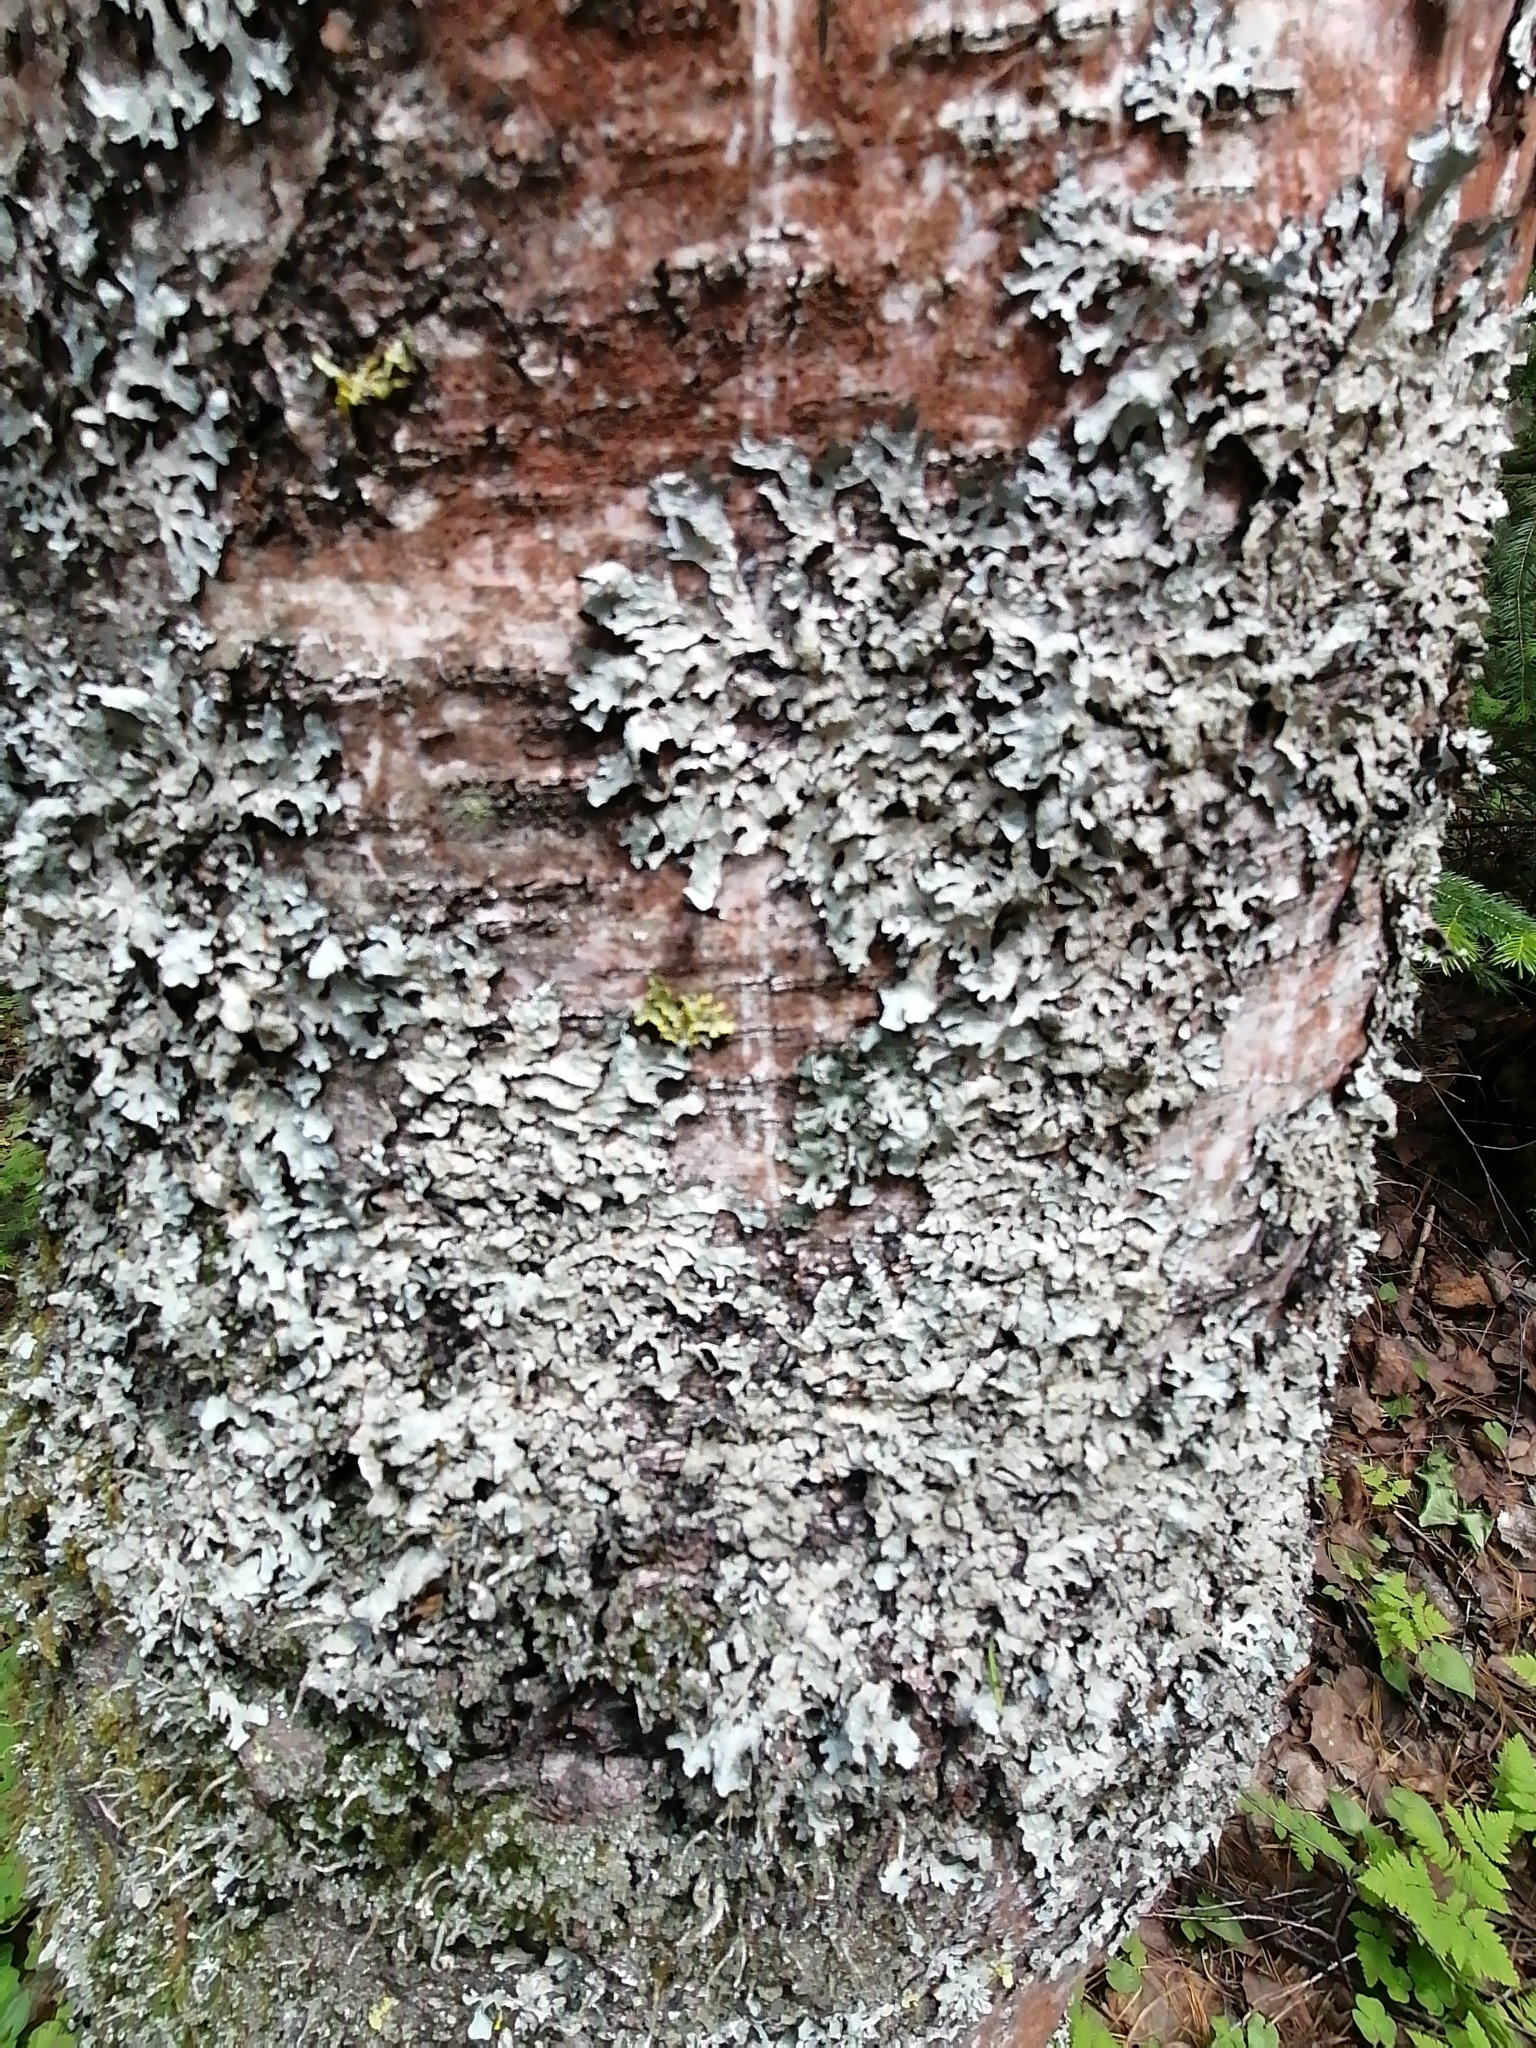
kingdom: Fungi
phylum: Ascomycota
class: Lecanoromycetes
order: Lecanorales
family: Parmeliaceae
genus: Parmelia
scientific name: Parmelia sulcata
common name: Netted shield lichen
